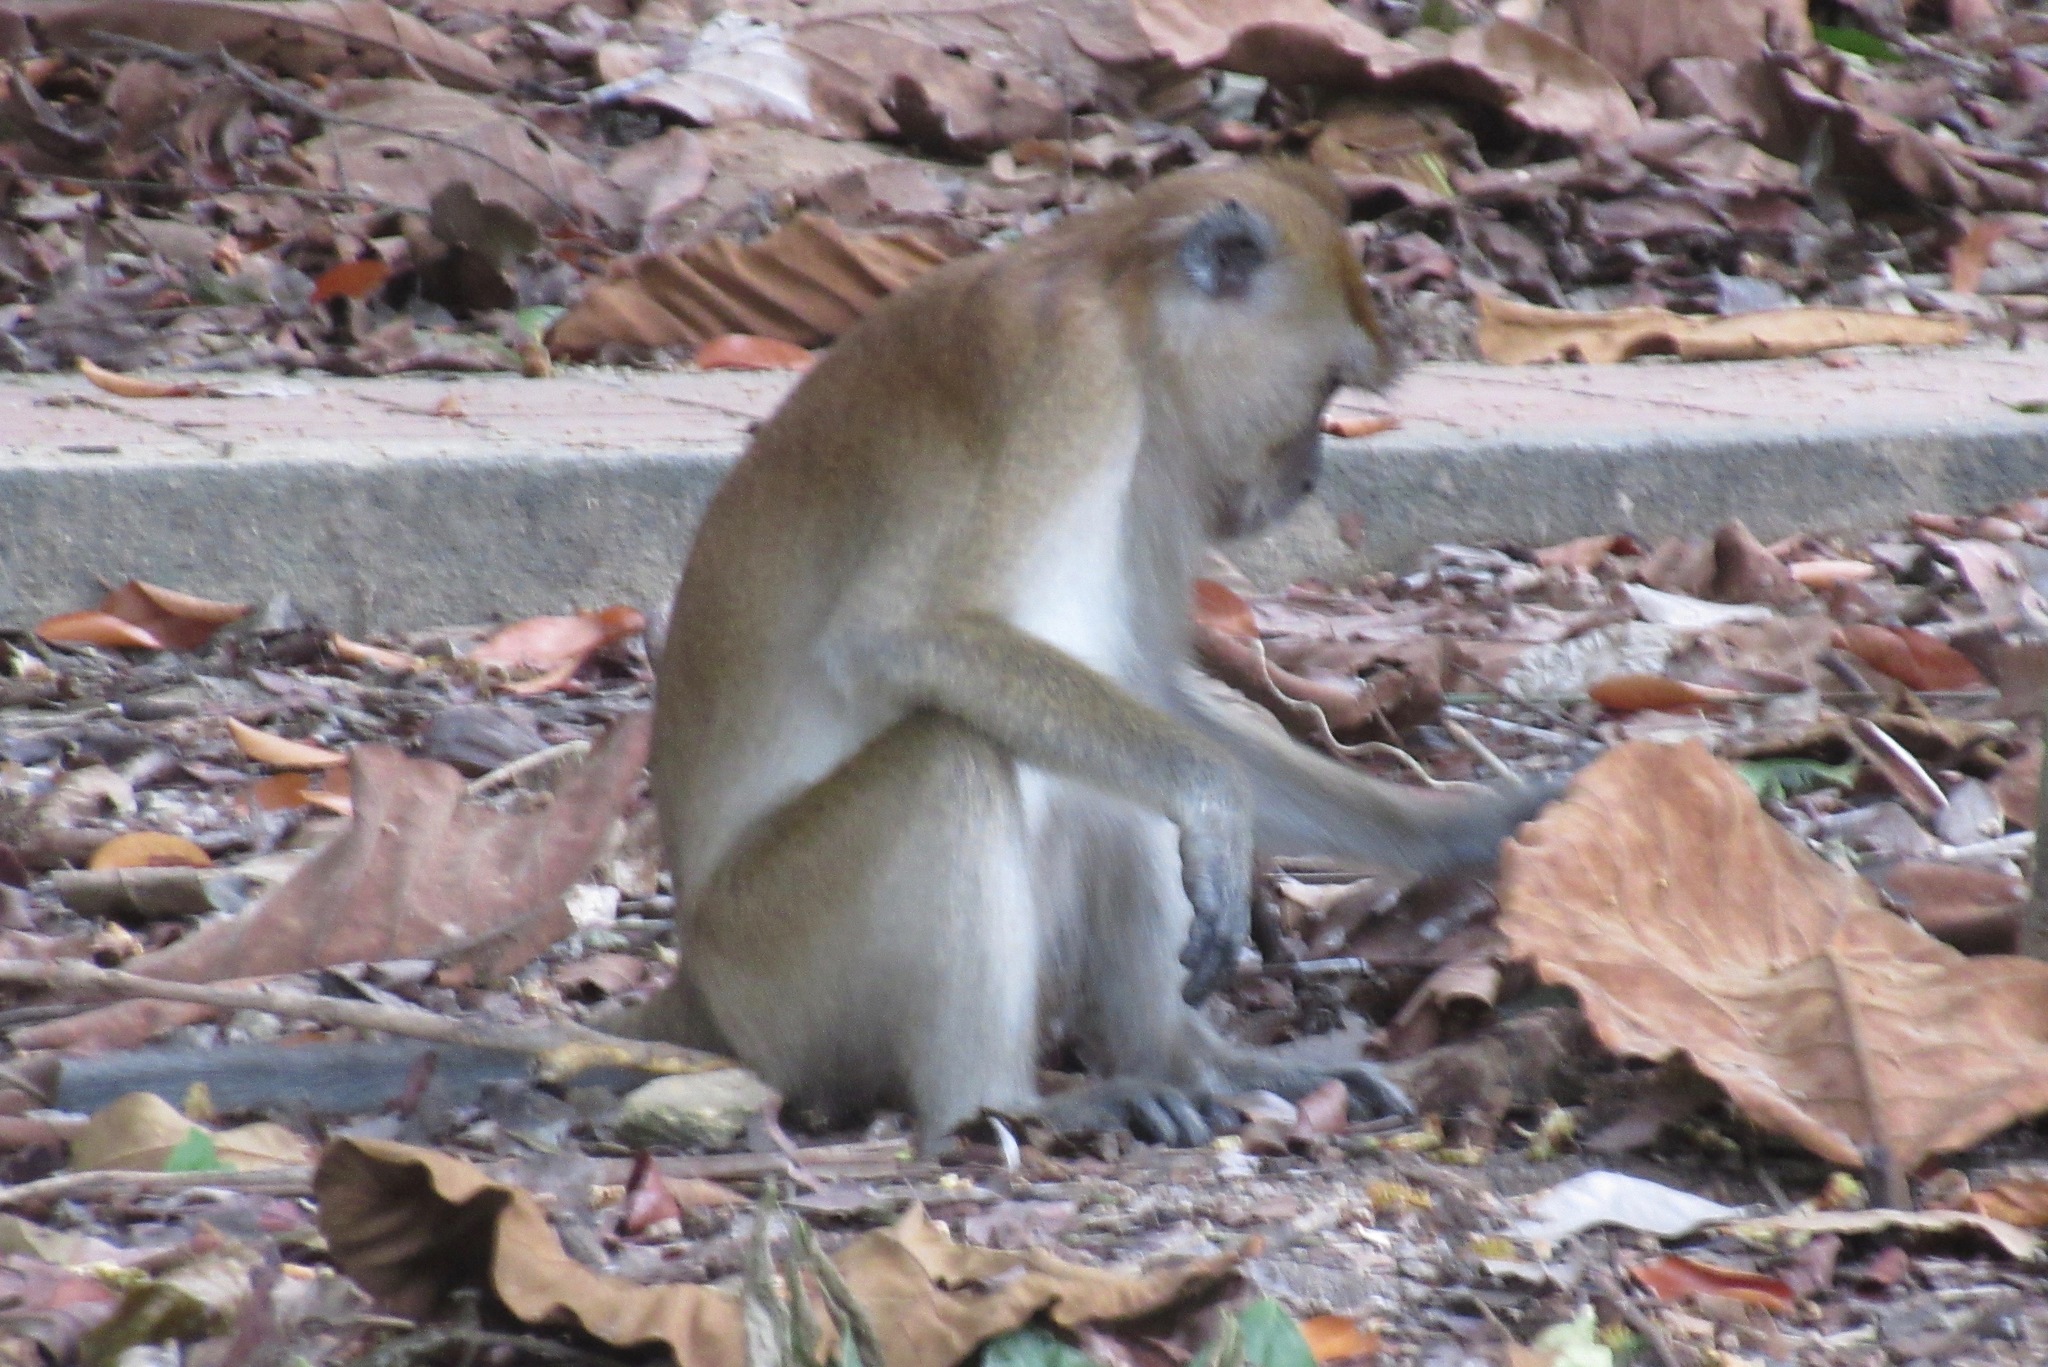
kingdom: Animalia
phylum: Chordata
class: Mammalia
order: Primates
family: Cercopithecidae
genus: Macaca
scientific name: Macaca fascicularis
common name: Crab-eating macaque
